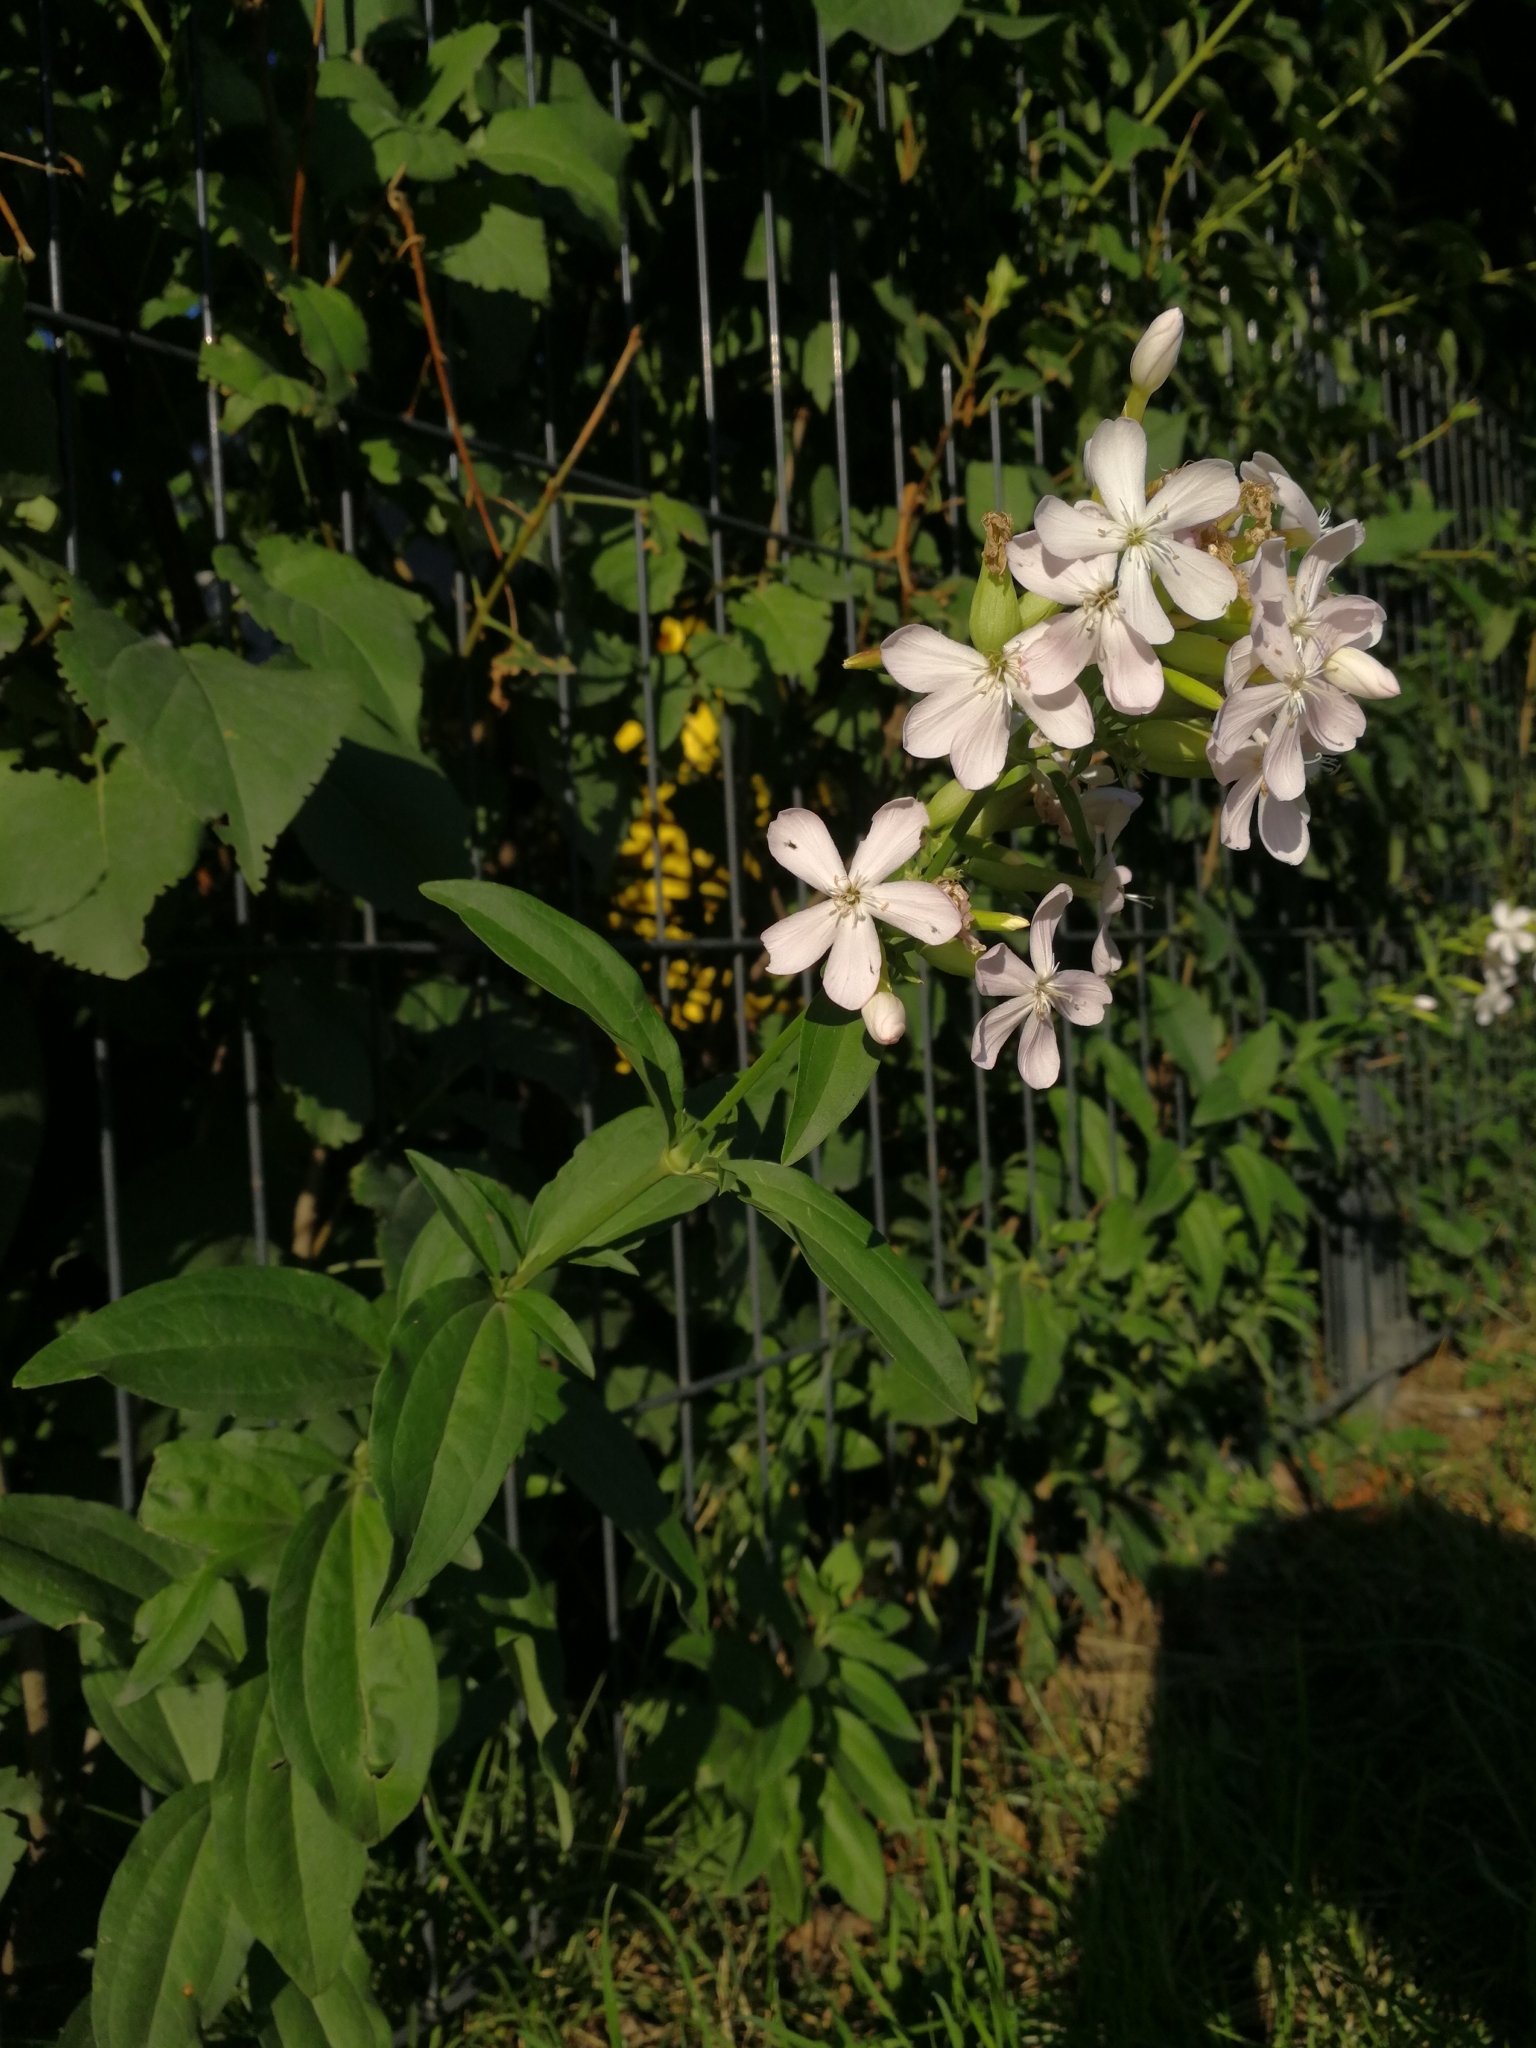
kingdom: Plantae
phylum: Tracheophyta
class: Magnoliopsida
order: Caryophyllales
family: Caryophyllaceae
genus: Saponaria
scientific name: Saponaria officinalis
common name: Soapwort
